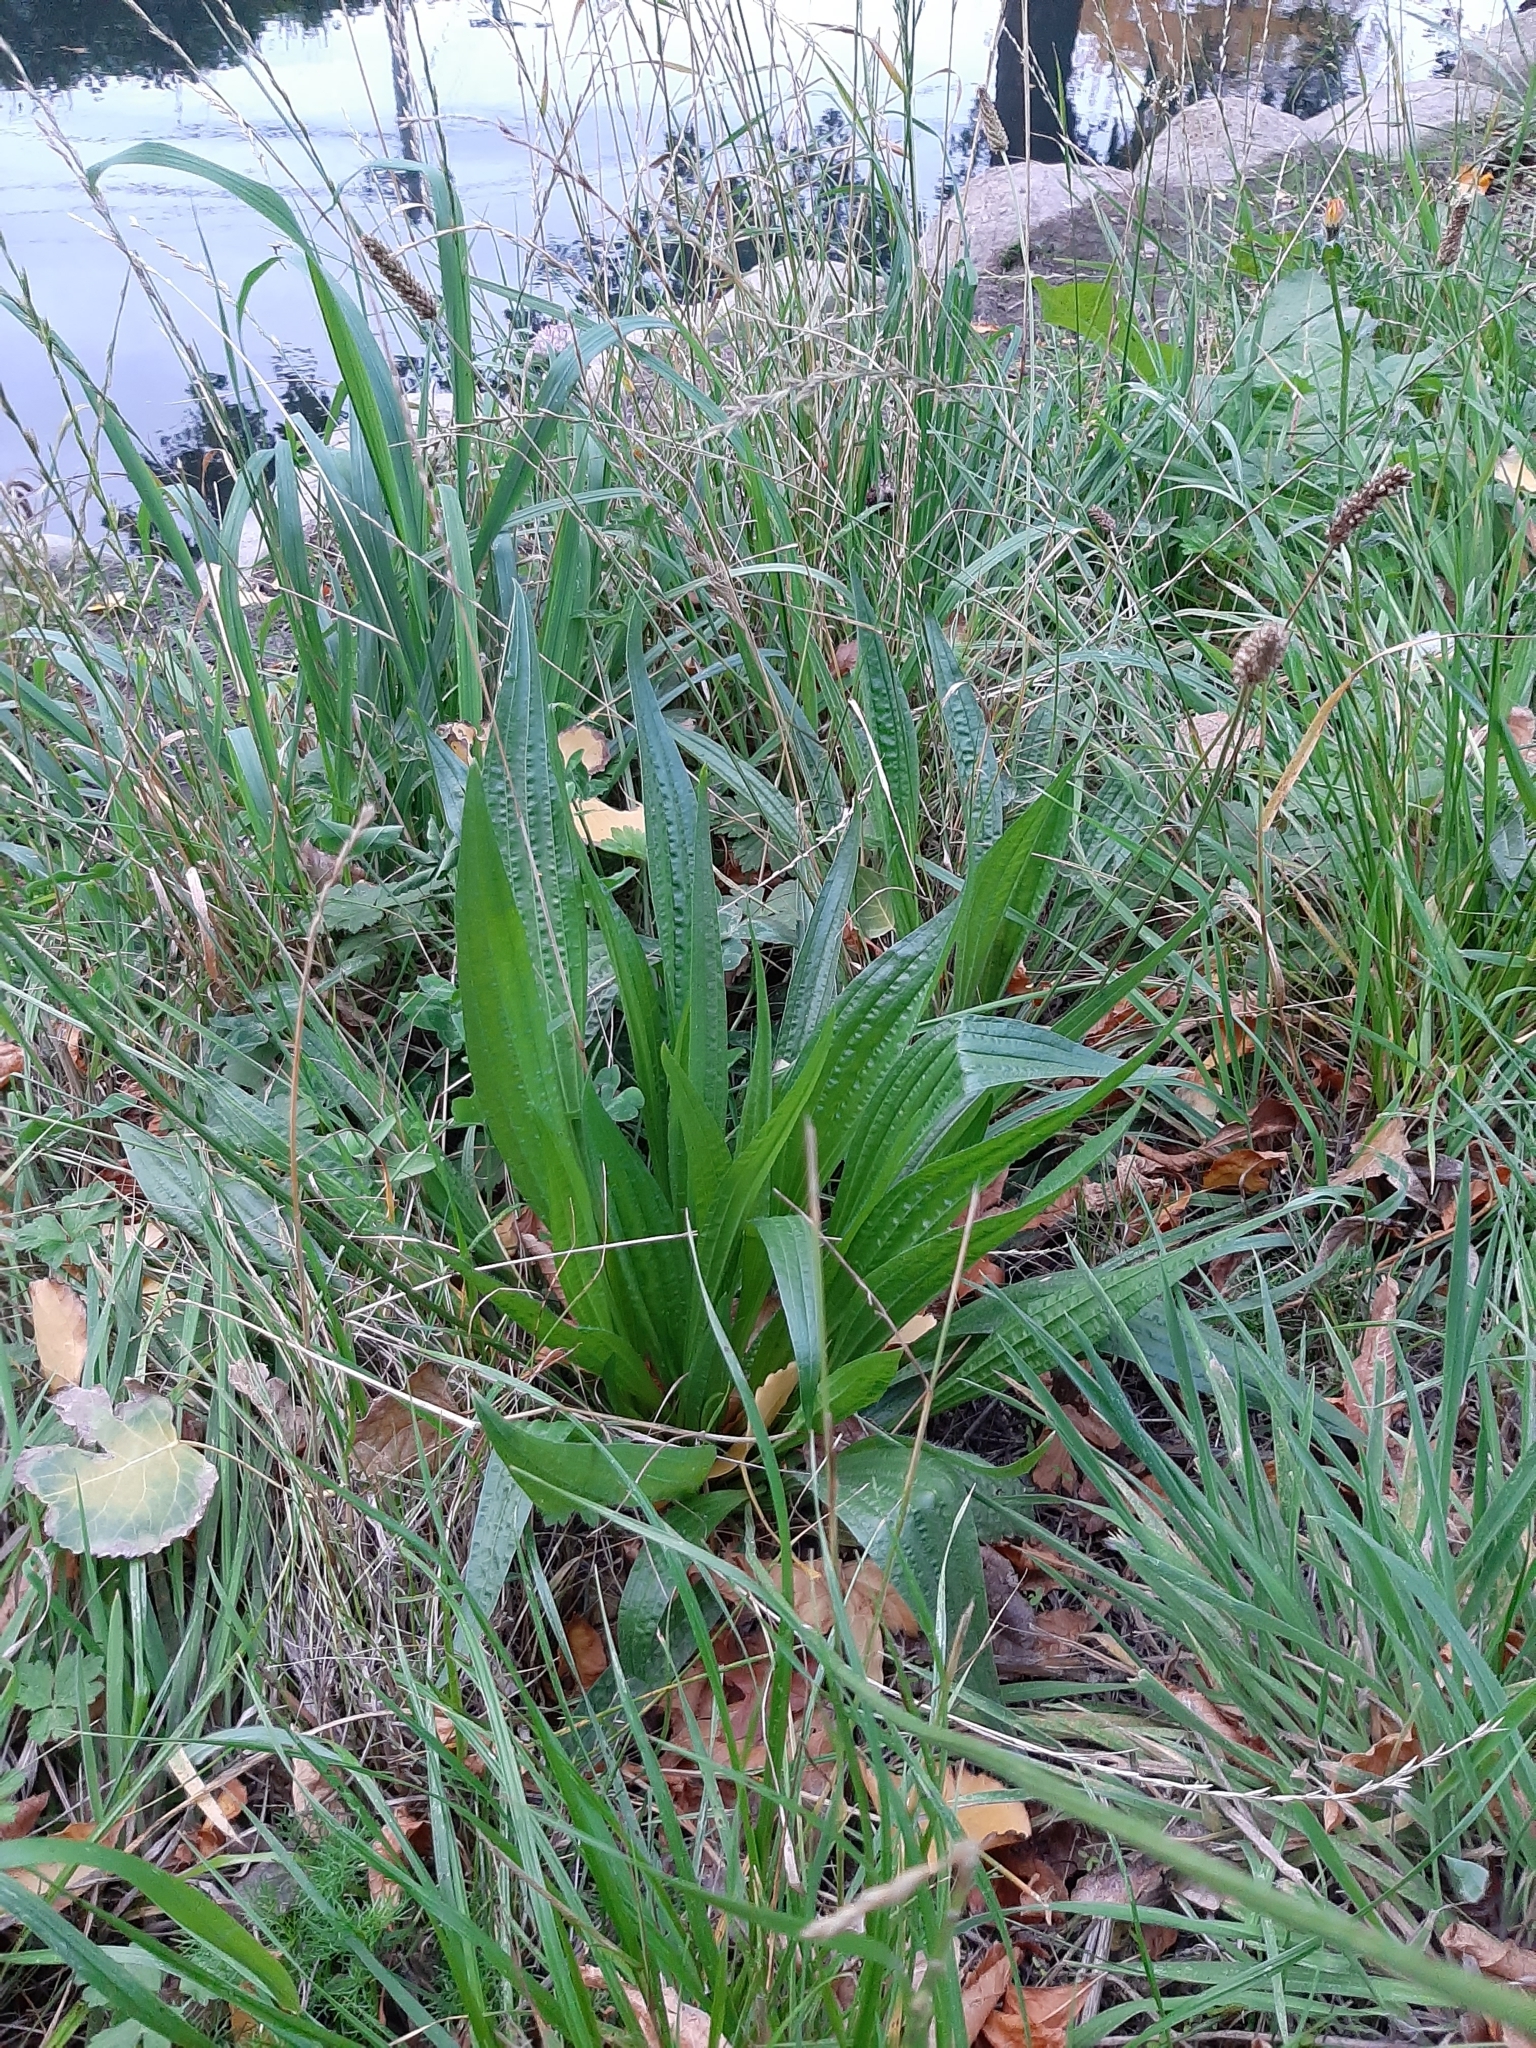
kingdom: Plantae
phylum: Tracheophyta
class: Magnoliopsida
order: Lamiales
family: Plantaginaceae
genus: Plantago
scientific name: Plantago lanceolata
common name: Ribwort plantain
